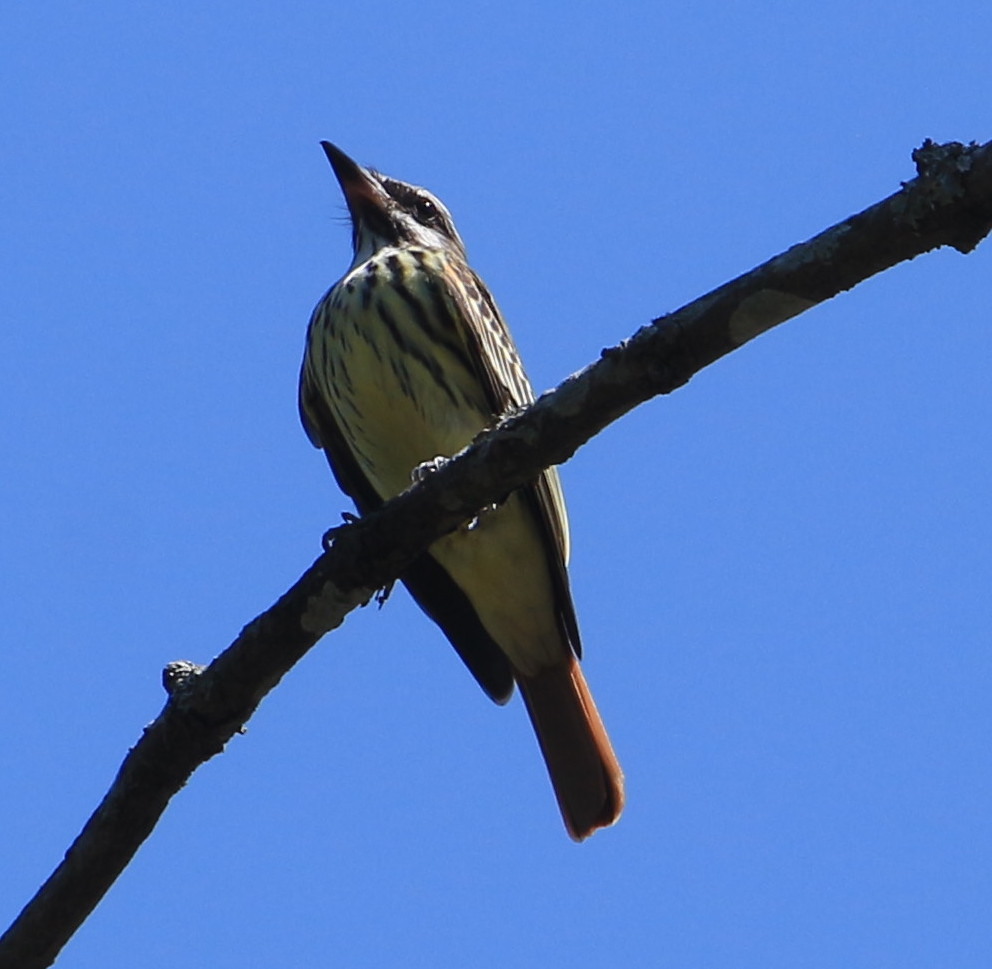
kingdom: Animalia
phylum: Chordata
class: Aves
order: Passeriformes
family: Tyrannidae
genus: Myiodynastes
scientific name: Myiodynastes luteiventris
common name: Sulphur-bellied flycatcher
